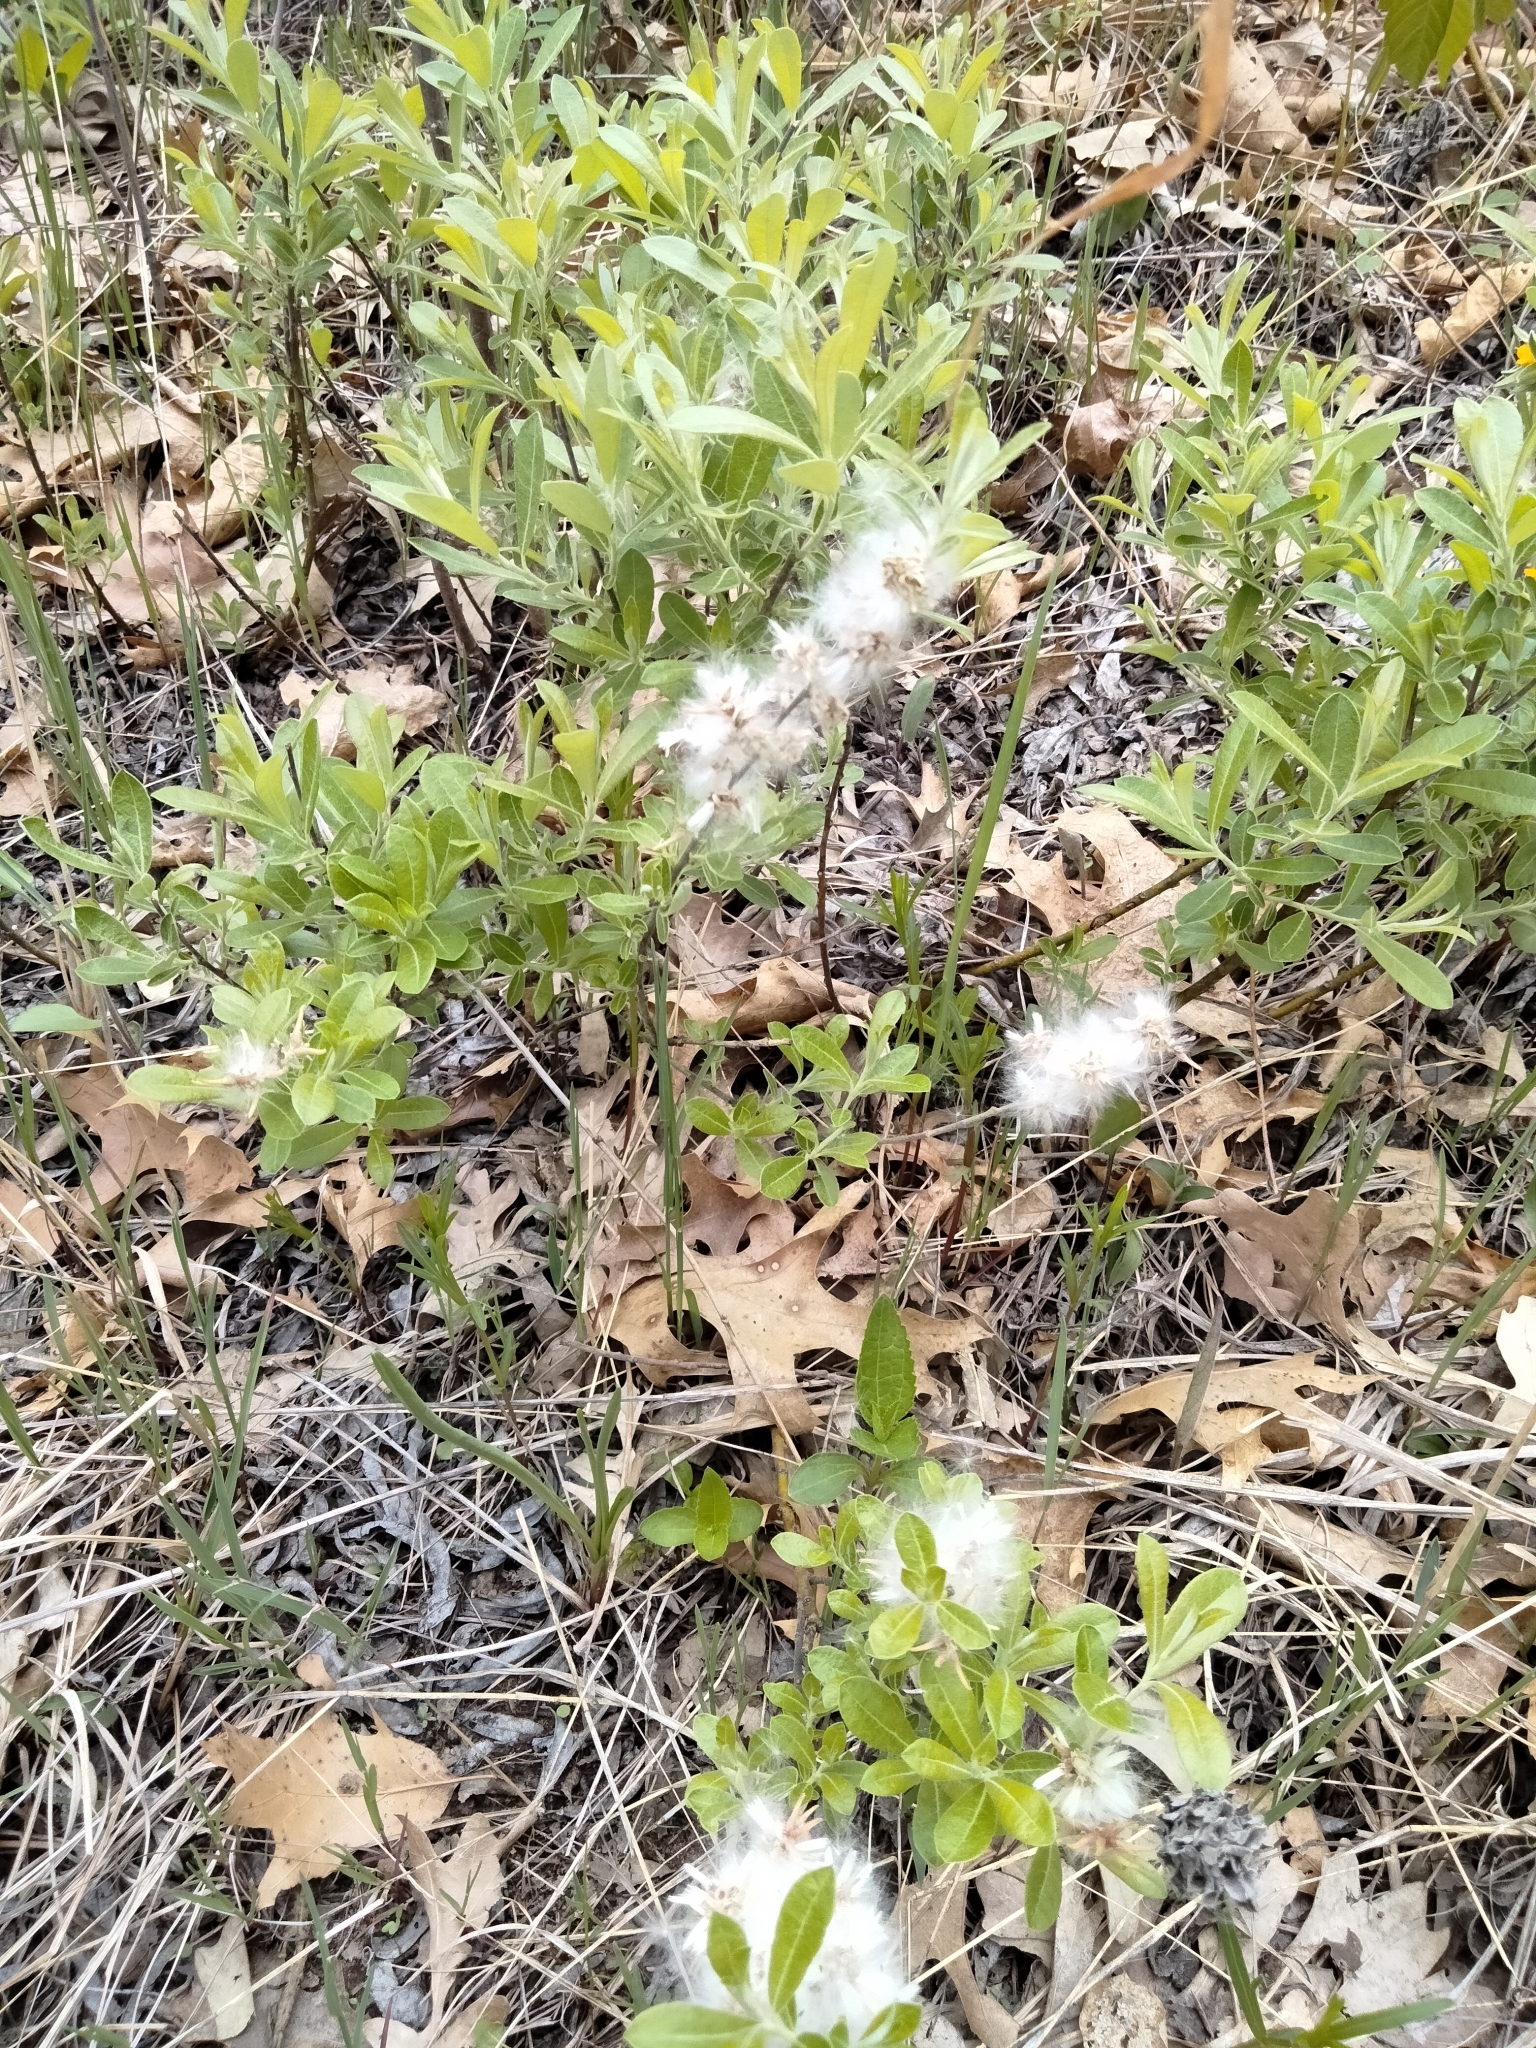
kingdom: Plantae
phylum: Tracheophyta
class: Magnoliopsida
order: Malpighiales
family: Salicaceae
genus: Salix
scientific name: Salix humilis
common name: Prairie willow
